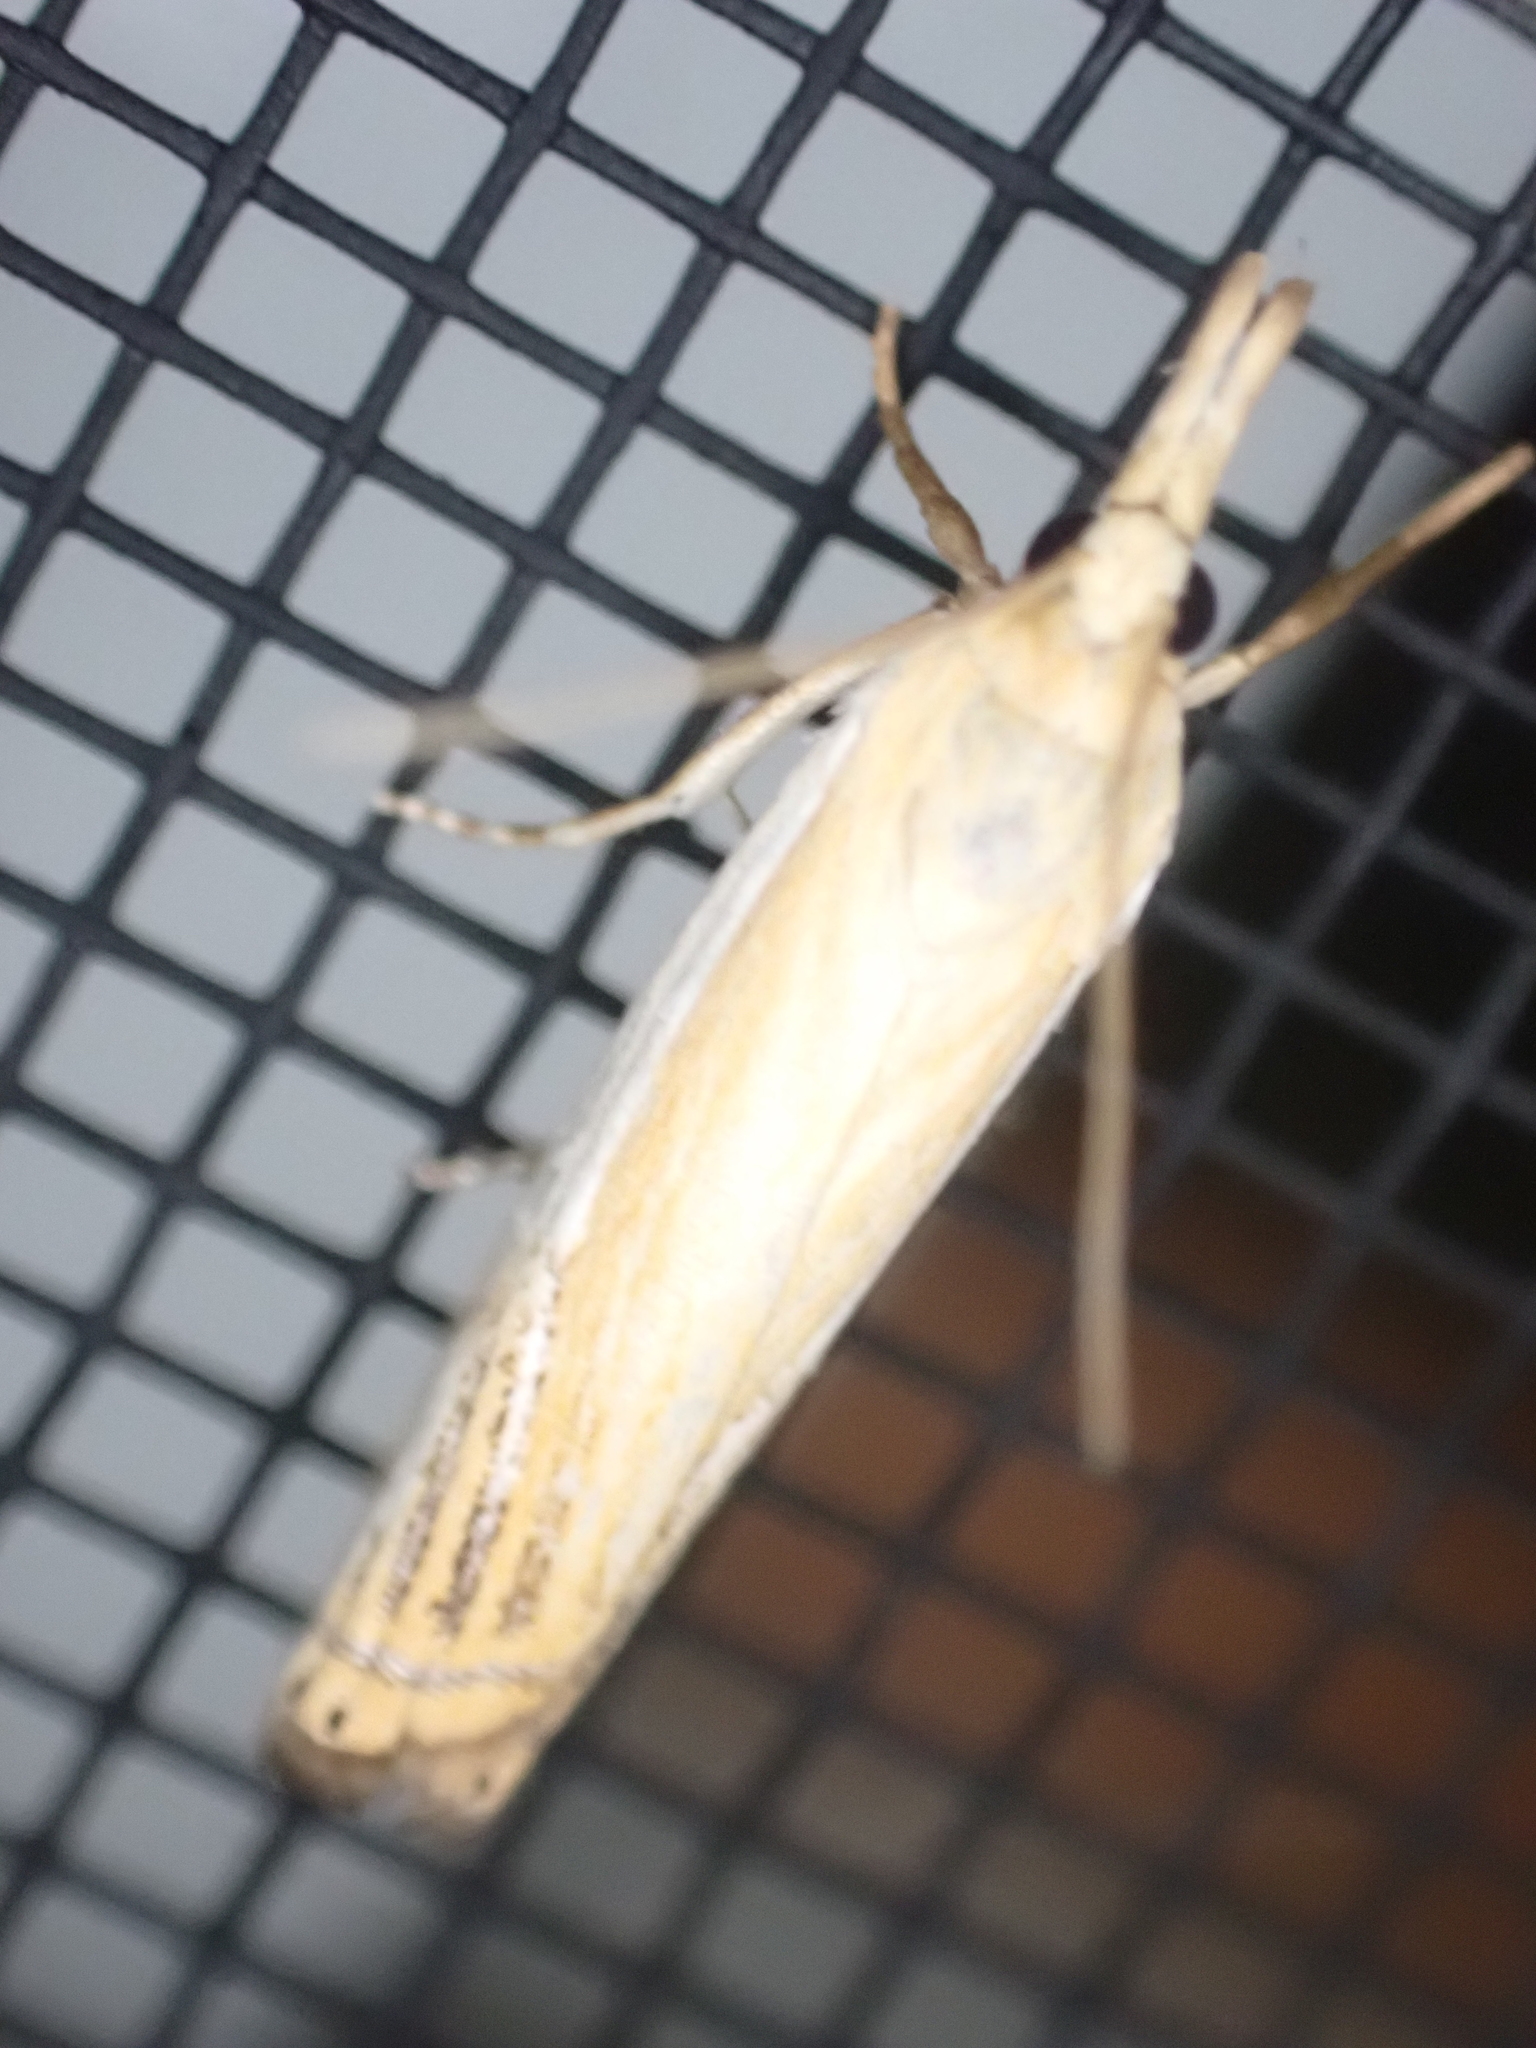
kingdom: Animalia
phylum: Arthropoda
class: Insecta
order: Lepidoptera
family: Crambidae
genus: Crambus
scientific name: Crambus agitatellus
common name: Double-banded grass-veneer
